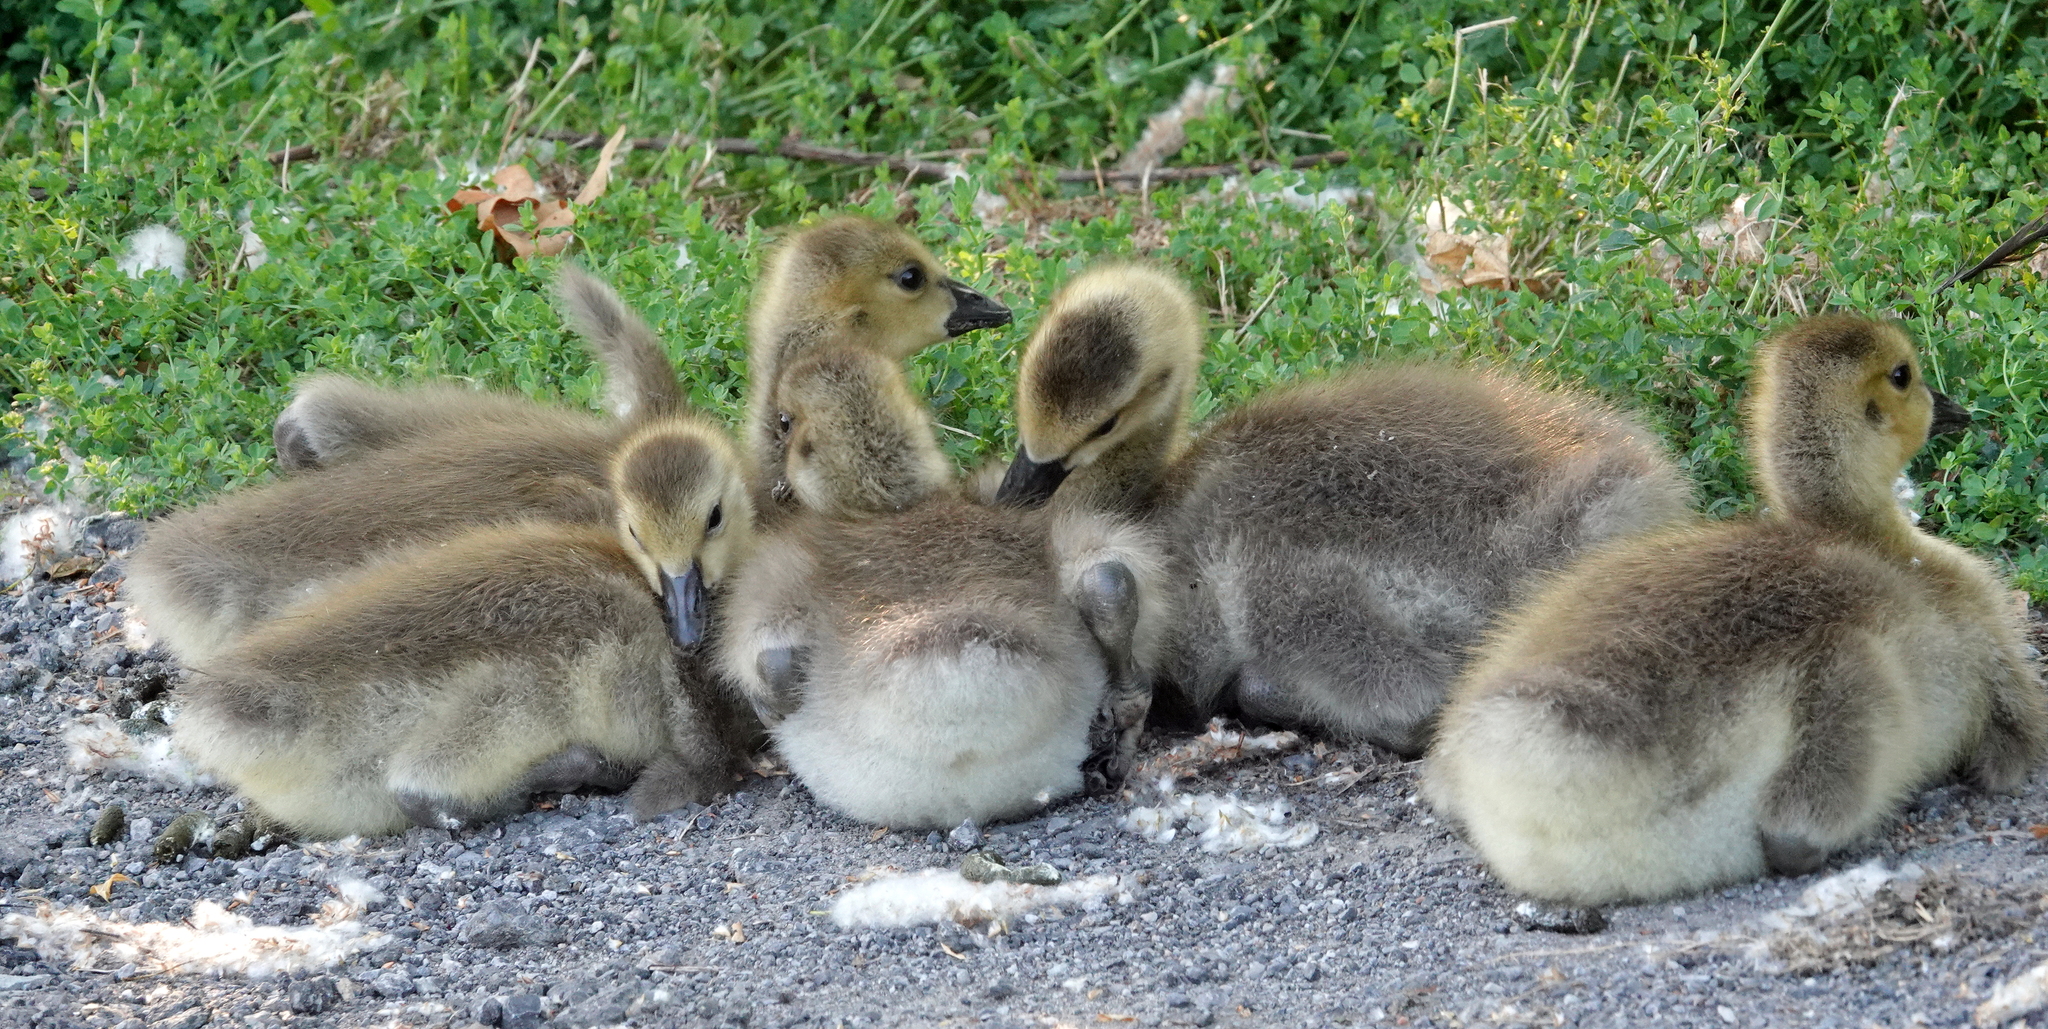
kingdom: Animalia
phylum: Chordata
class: Aves
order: Anseriformes
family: Anatidae
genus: Branta
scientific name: Branta canadensis
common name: Canada goose
